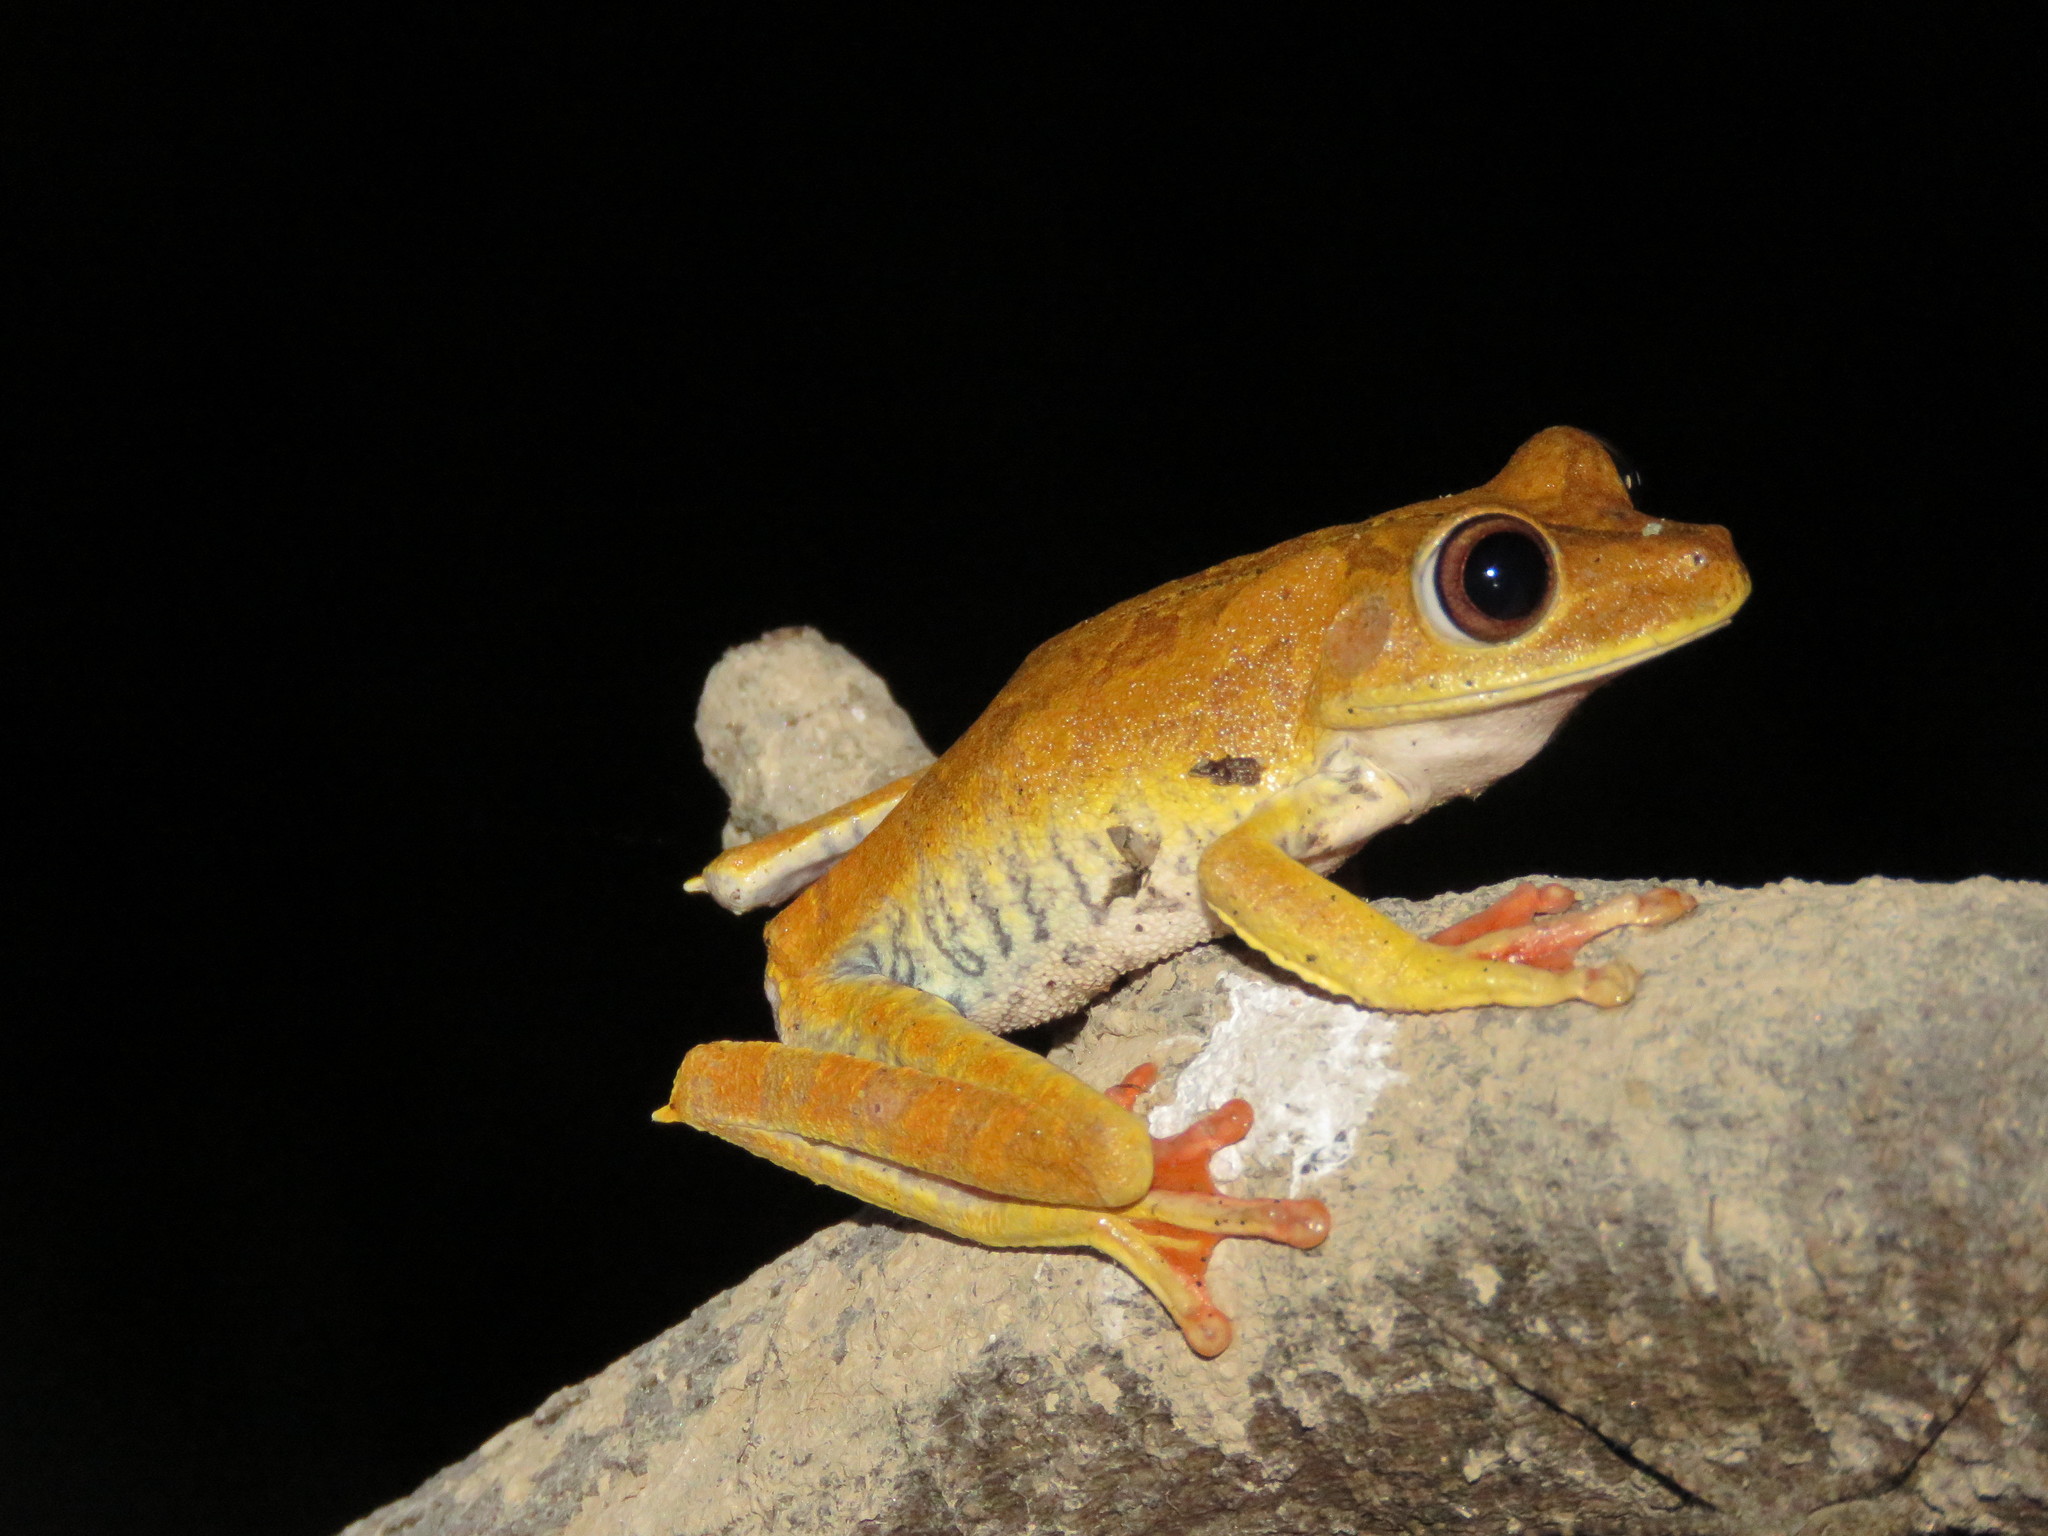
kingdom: Animalia
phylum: Chordata
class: Amphibia
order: Anura
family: Hylidae
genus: Boana
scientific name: Boana geographica
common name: Map treefrog
